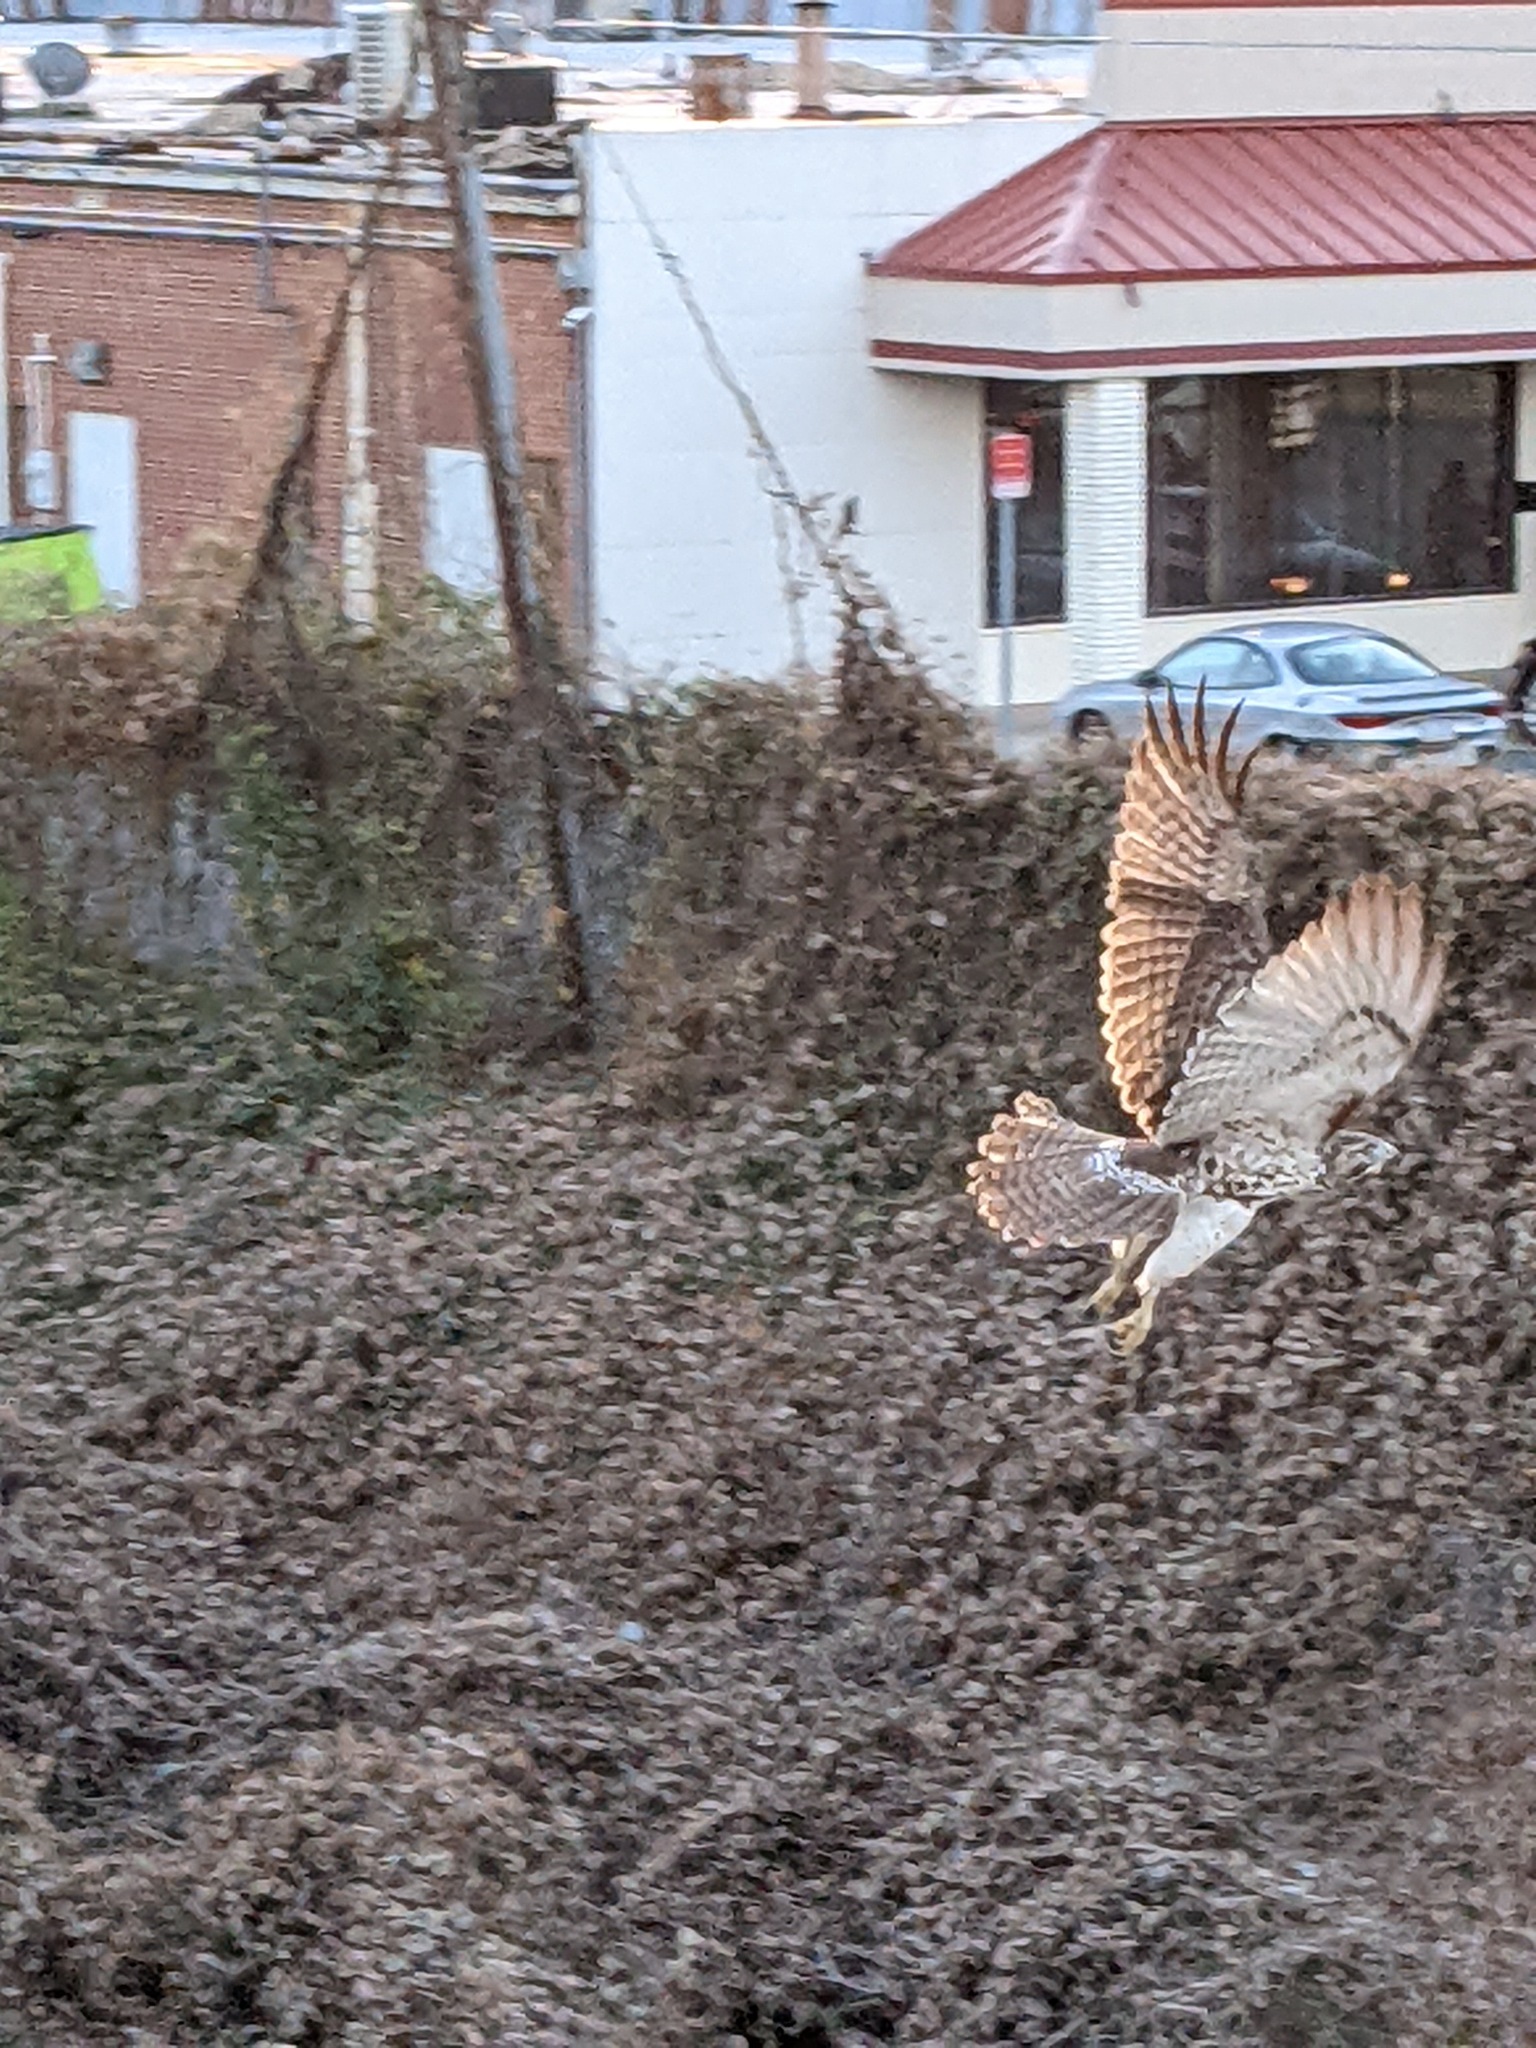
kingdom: Animalia
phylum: Chordata
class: Aves
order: Accipitriformes
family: Accipitridae
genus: Buteo
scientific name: Buteo jamaicensis
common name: Red-tailed hawk
